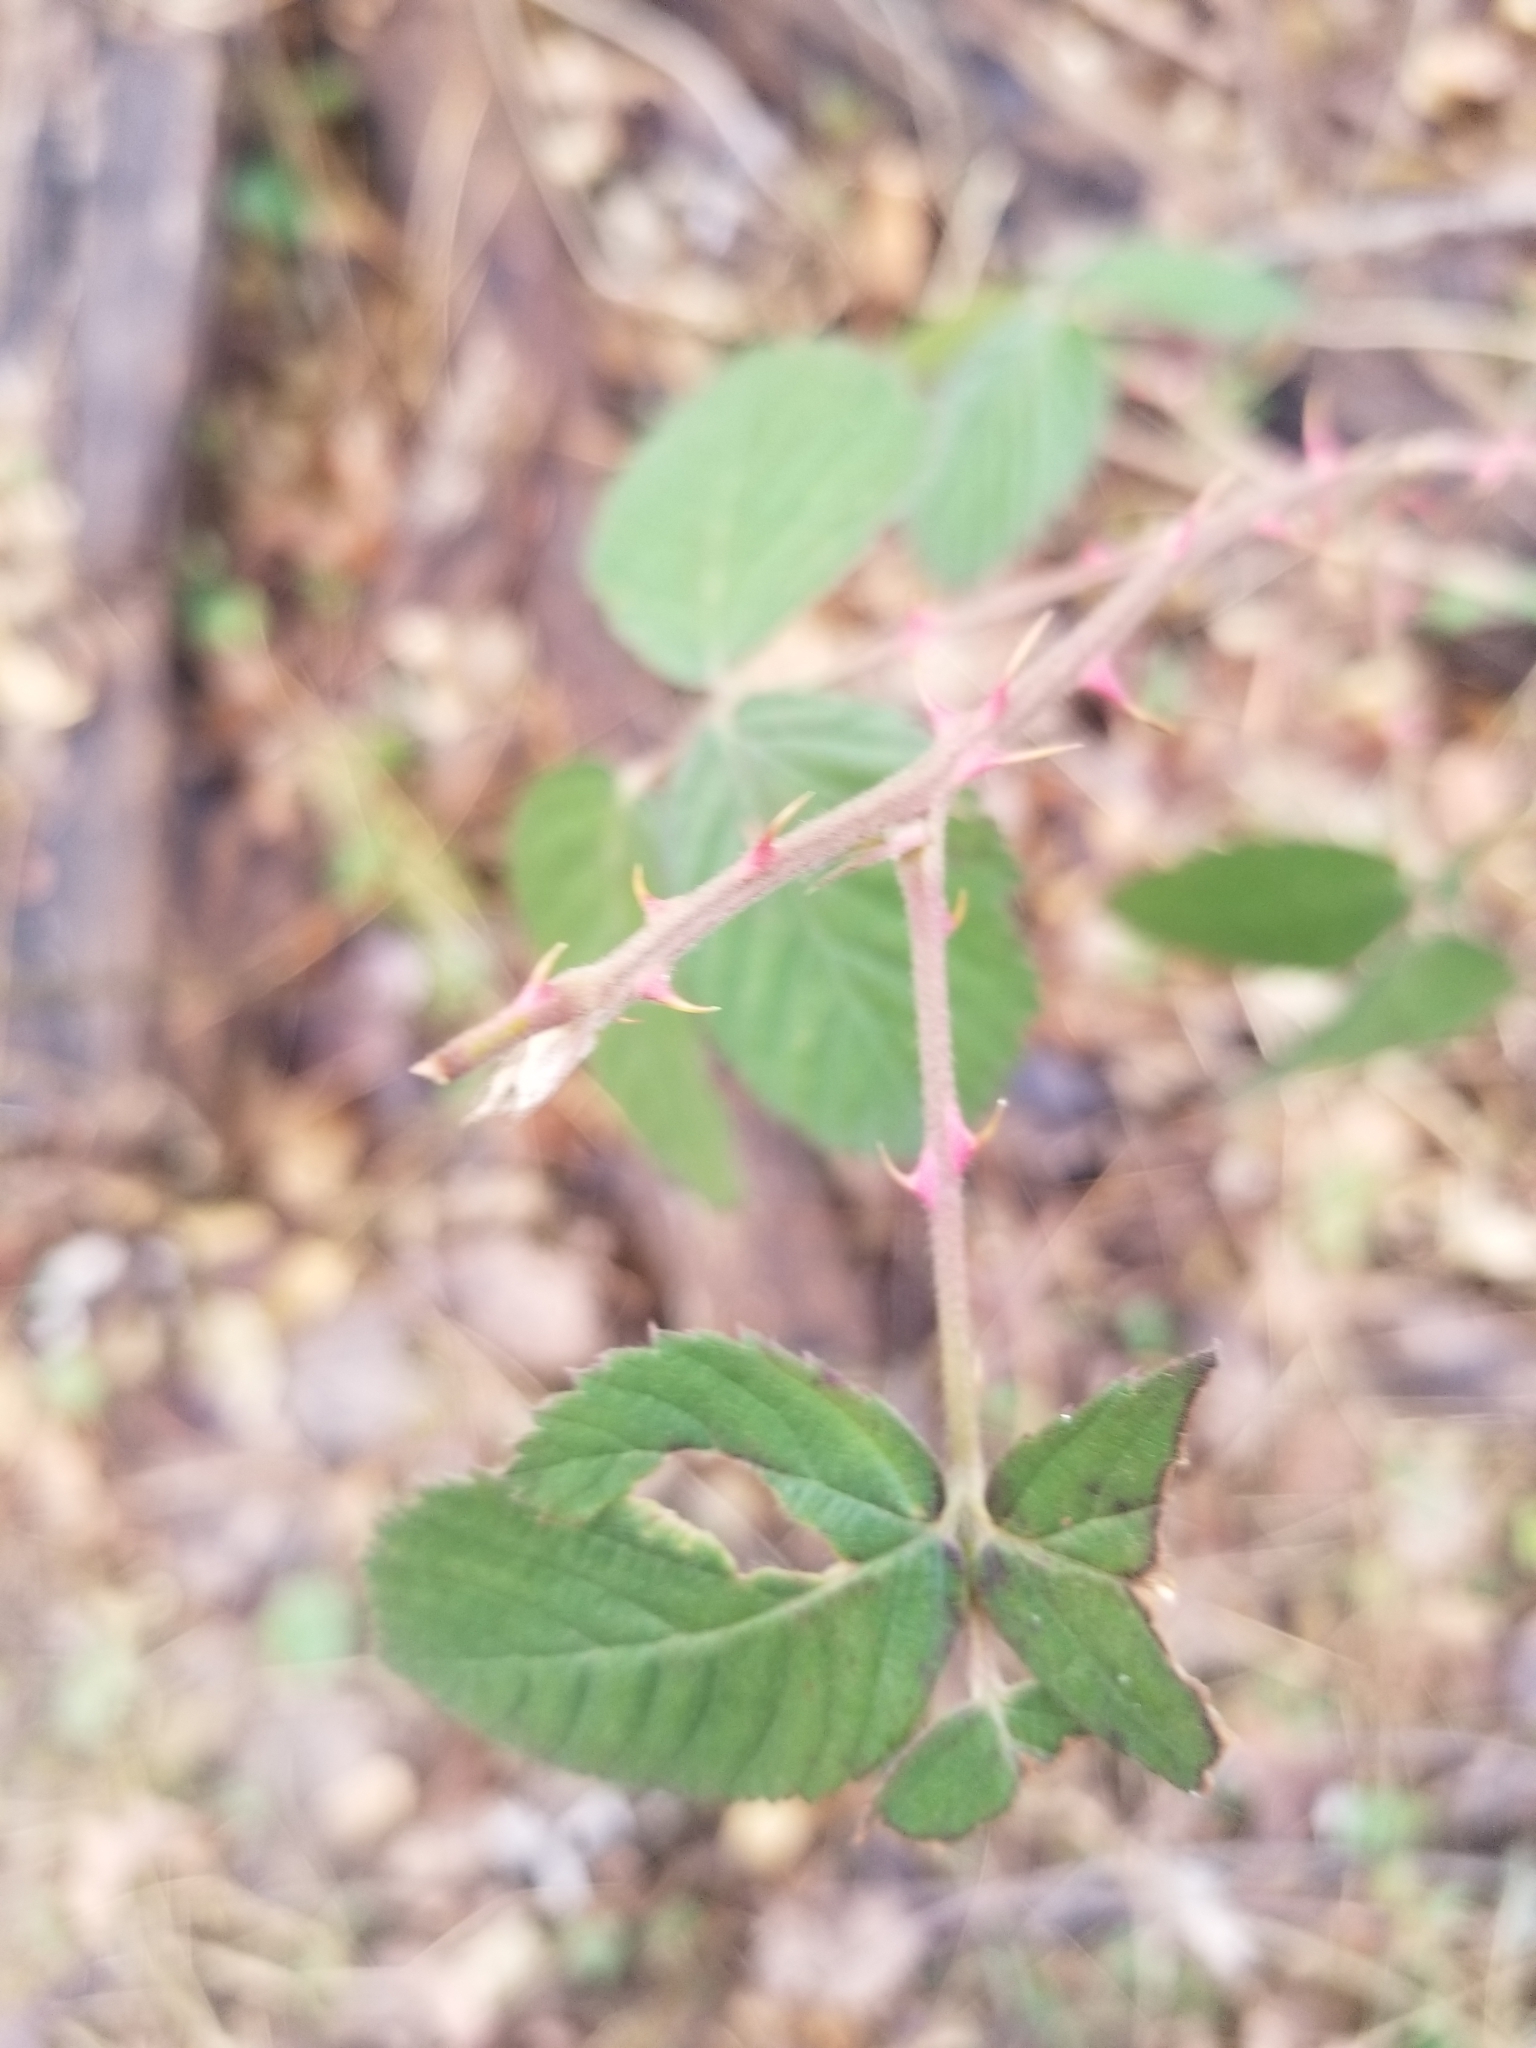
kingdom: Plantae
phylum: Tracheophyta
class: Magnoliopsida
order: Rosales
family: Rosaceae
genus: Rosa
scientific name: Rosa multiflora
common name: Multiflora rose
